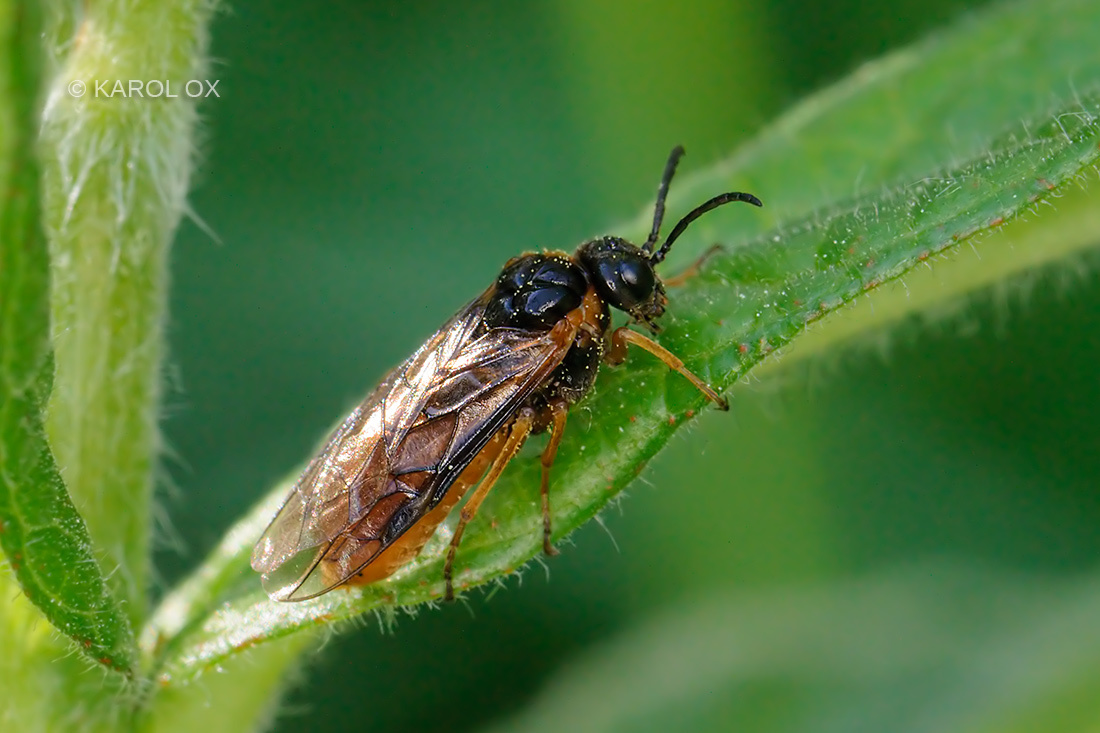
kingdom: Animalia
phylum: Arthropoda
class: Insecta
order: Hymenoptera
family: Tenthredinidae
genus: Monostegia
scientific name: Monostegia abdominalis
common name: Tenthredid wasp
